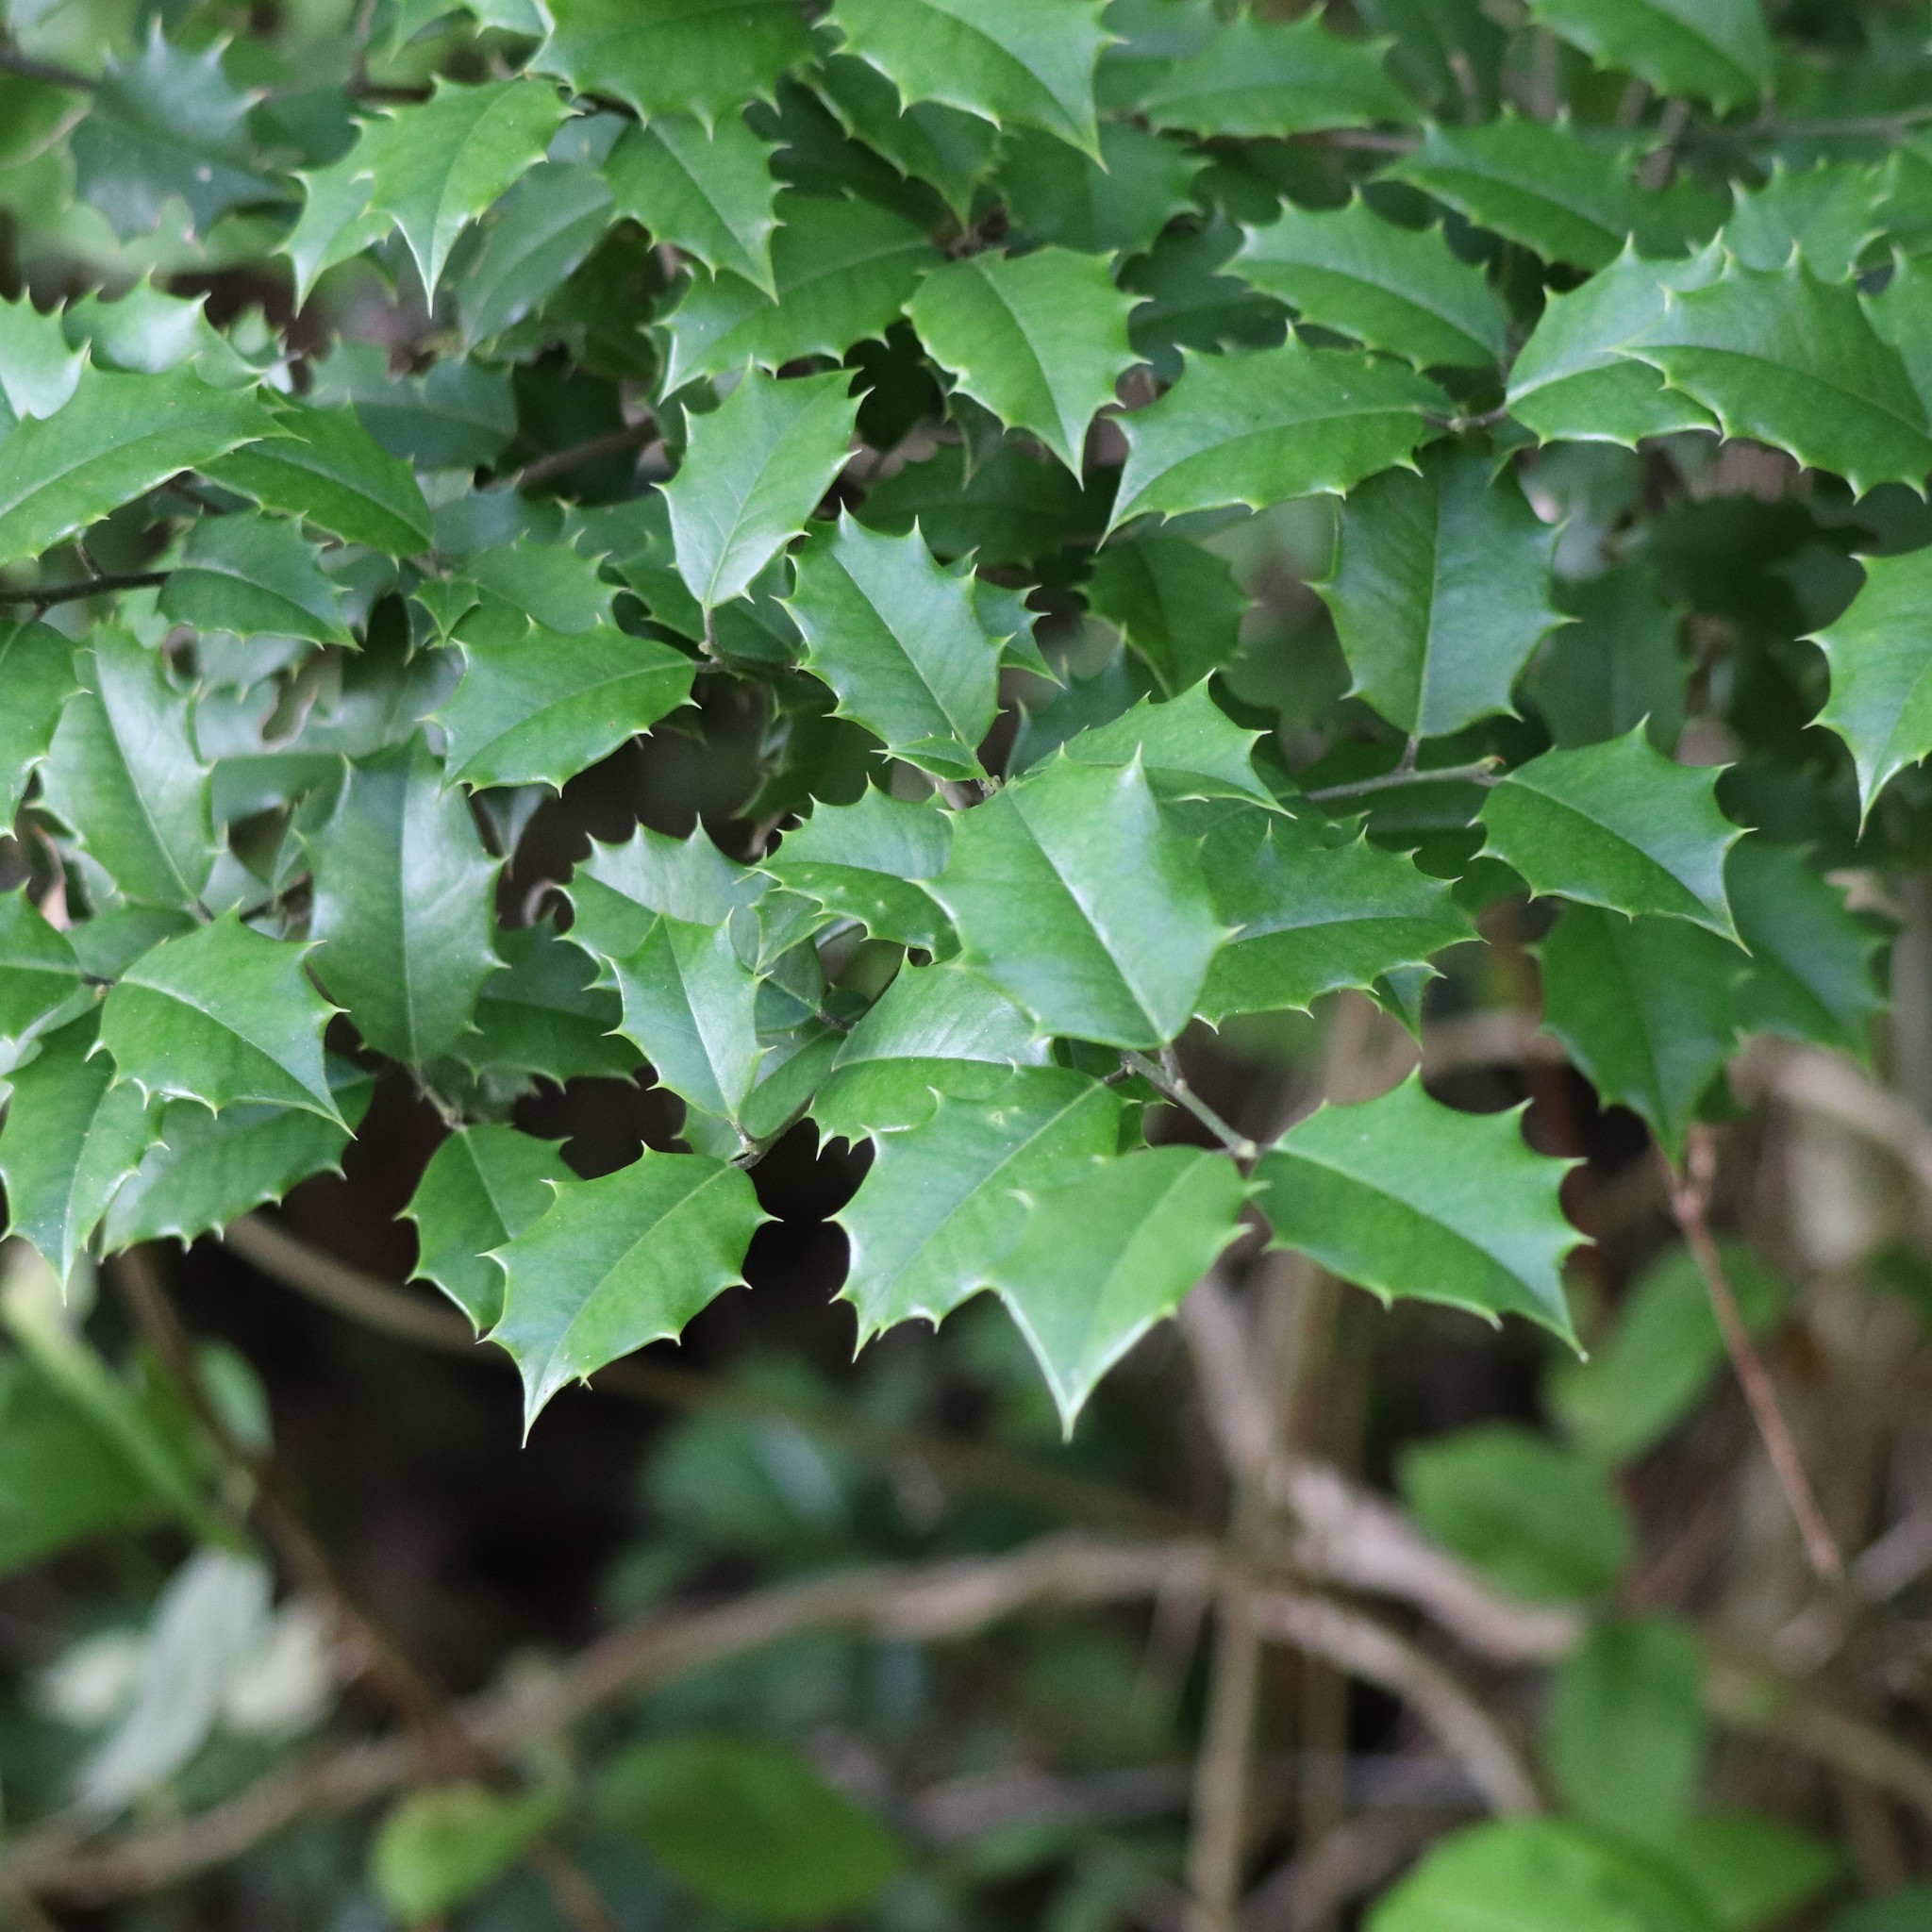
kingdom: Plantae
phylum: Tracheophyta
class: Magnoliopsida
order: Aquifoliales
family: Aquifoliaceae
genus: Ilex
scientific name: Ilex opaca
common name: American holly
